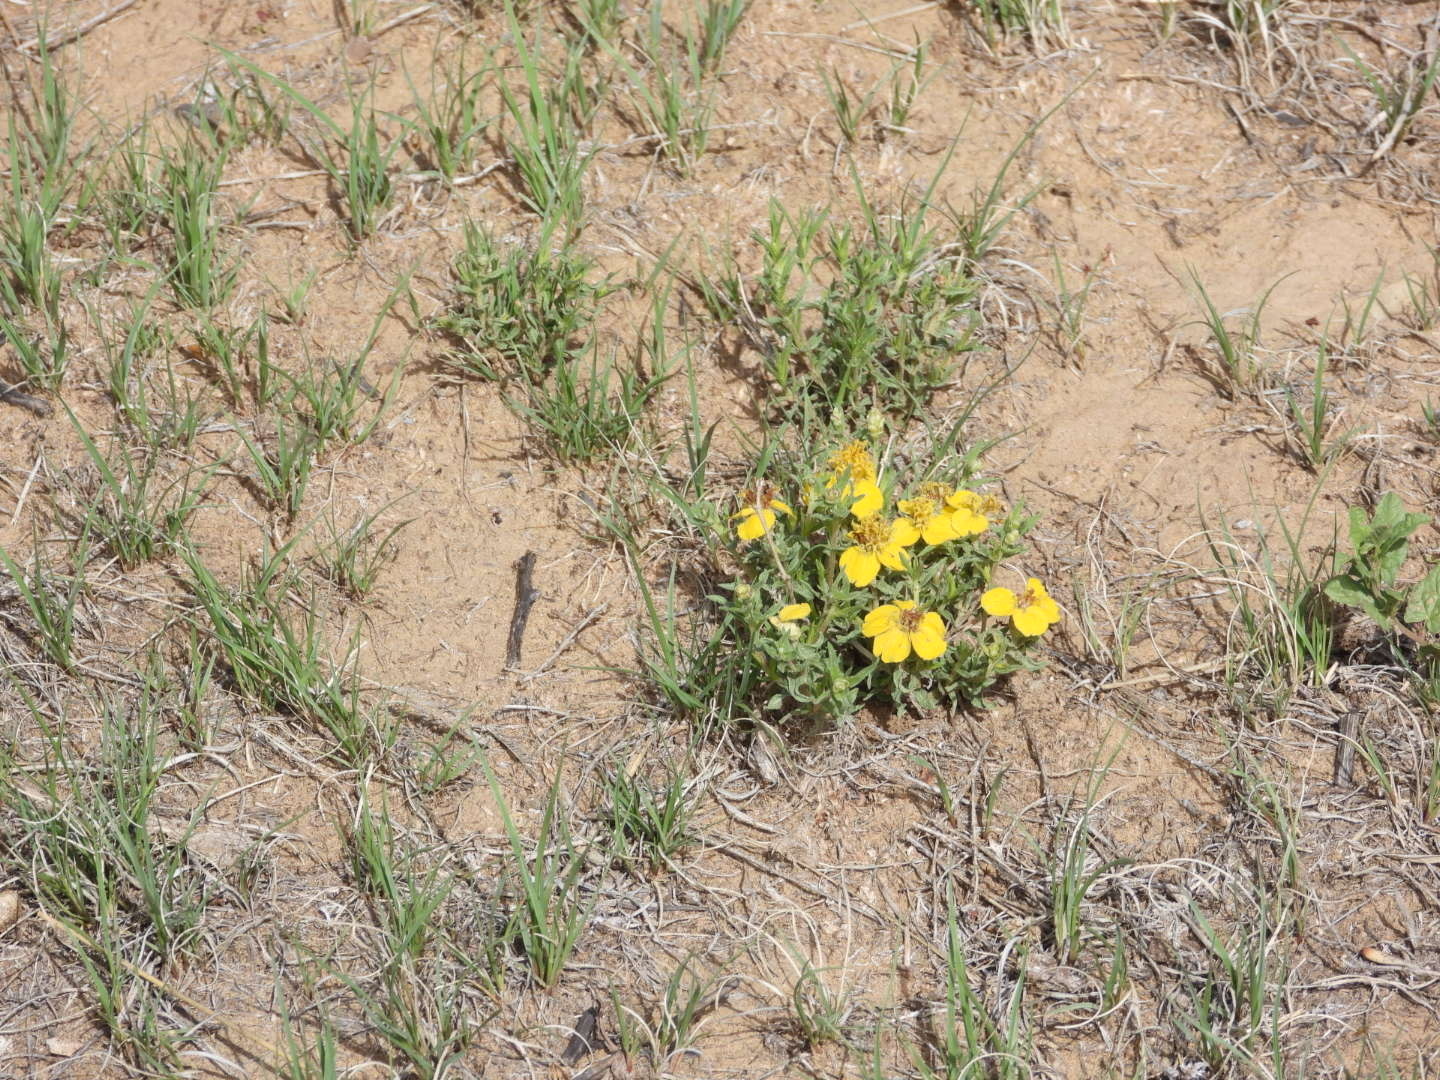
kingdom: Plantae
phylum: Tracheophyta
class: Magnoliopsida
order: Asterales
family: Asteraceae
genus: Zinnia
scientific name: Zinnia grandiflora
